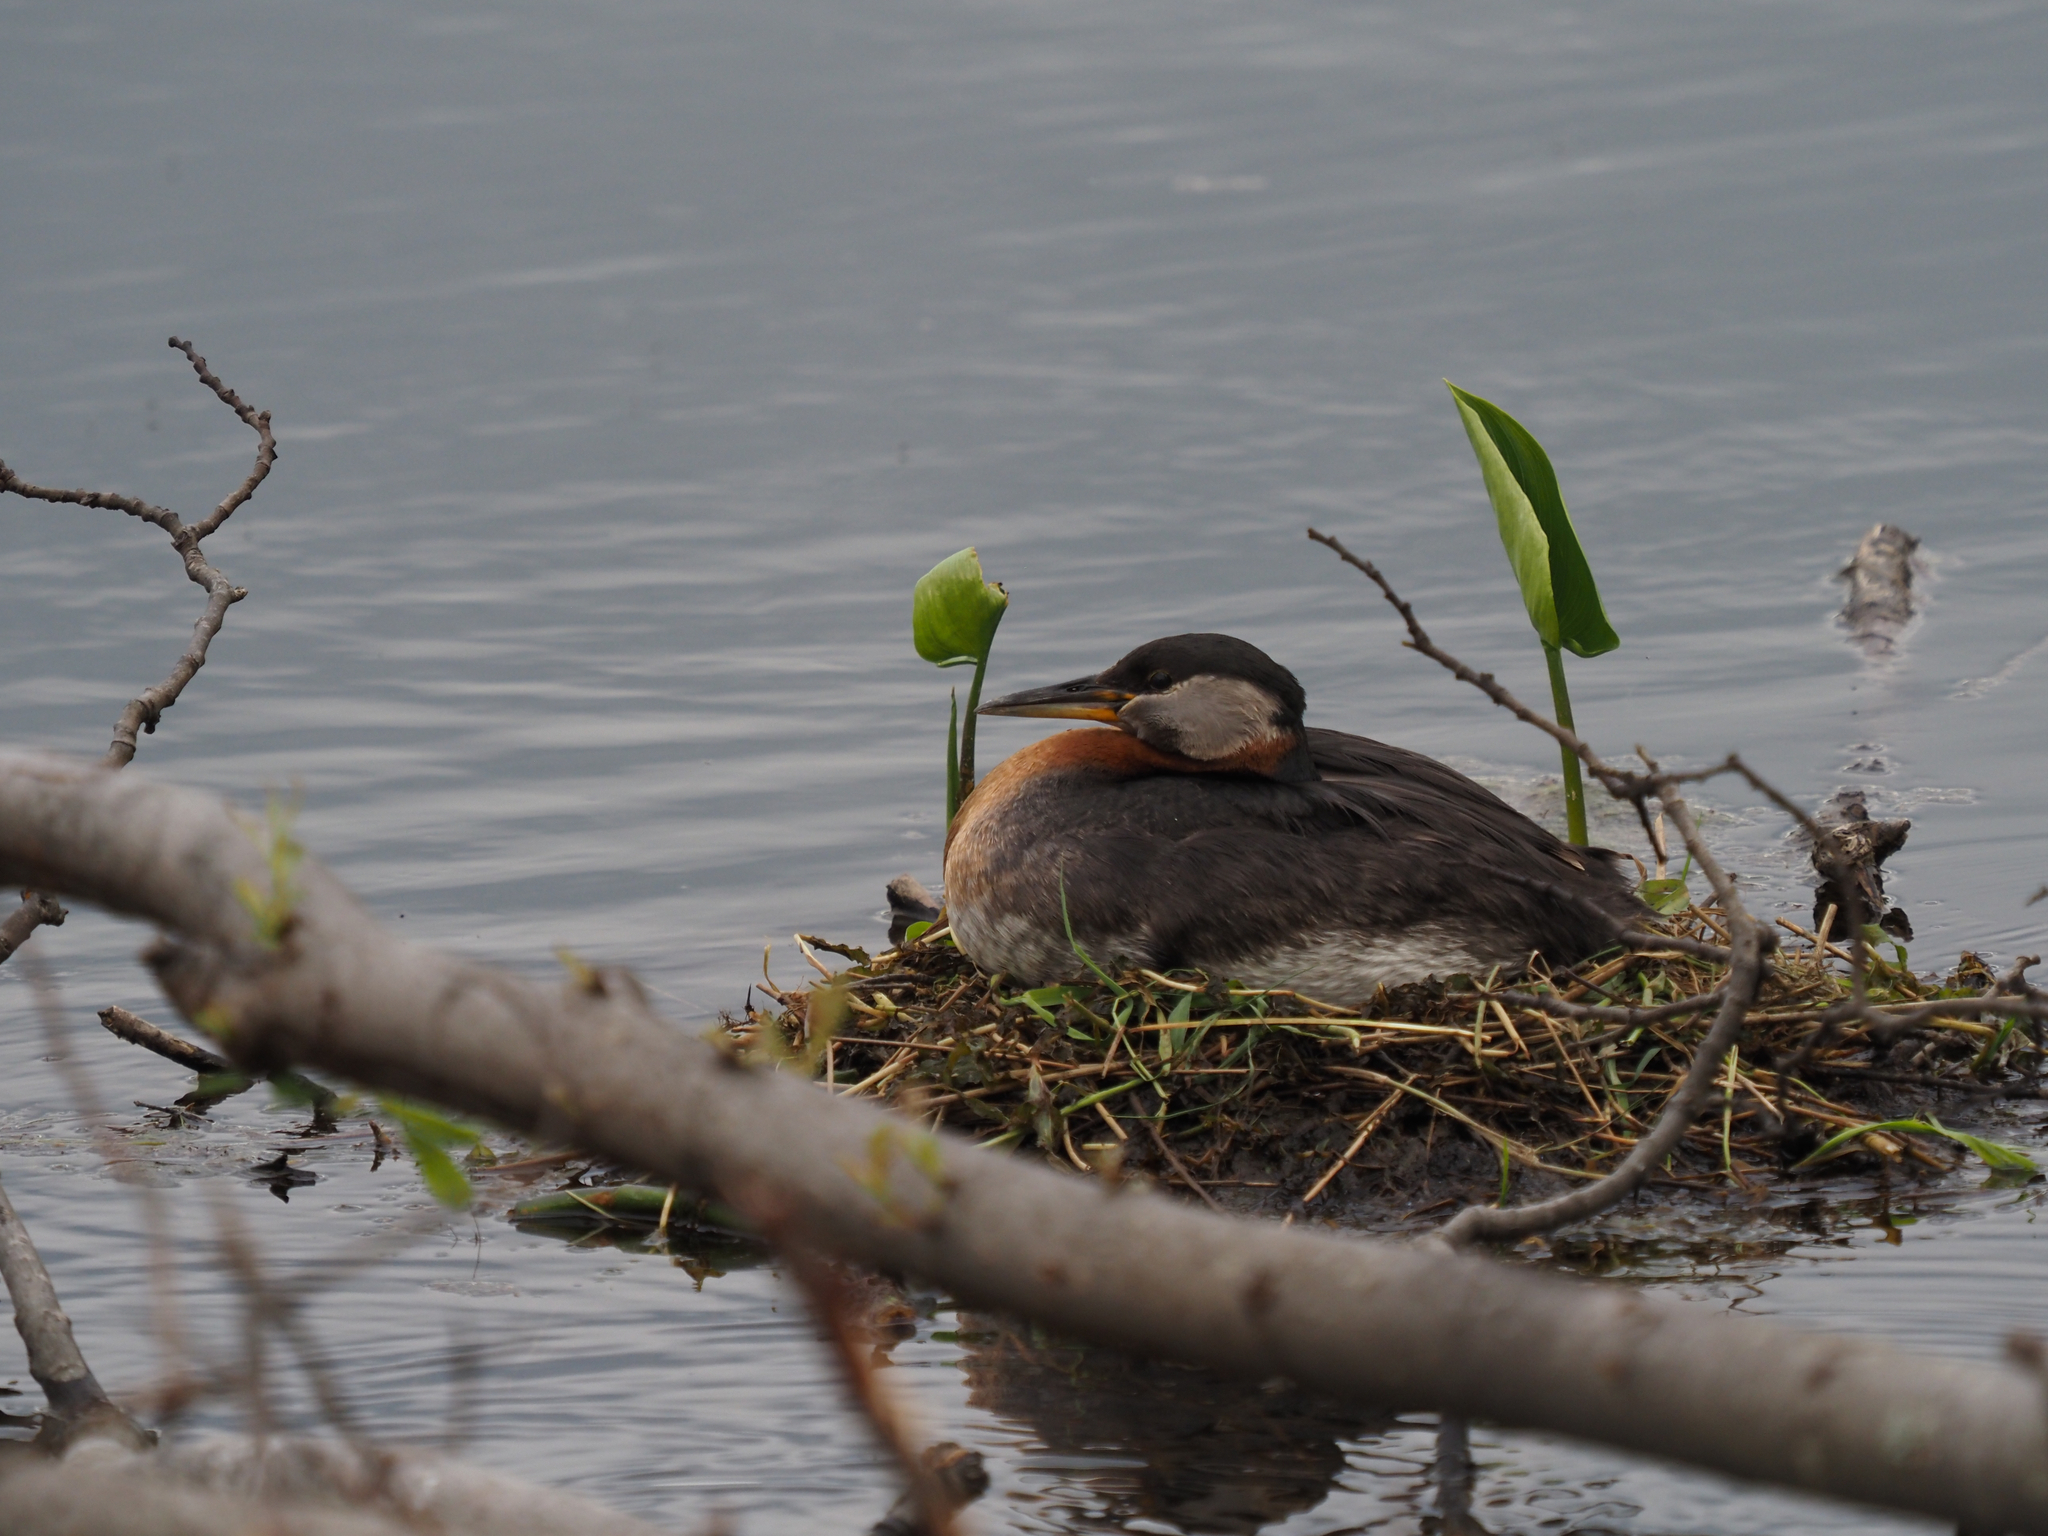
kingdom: Animalia
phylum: Chordata
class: Aves
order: Podicipediformes
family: Podicipedidae
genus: Podiceps
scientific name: Podiceps grisegena
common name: Red-necked grebe
